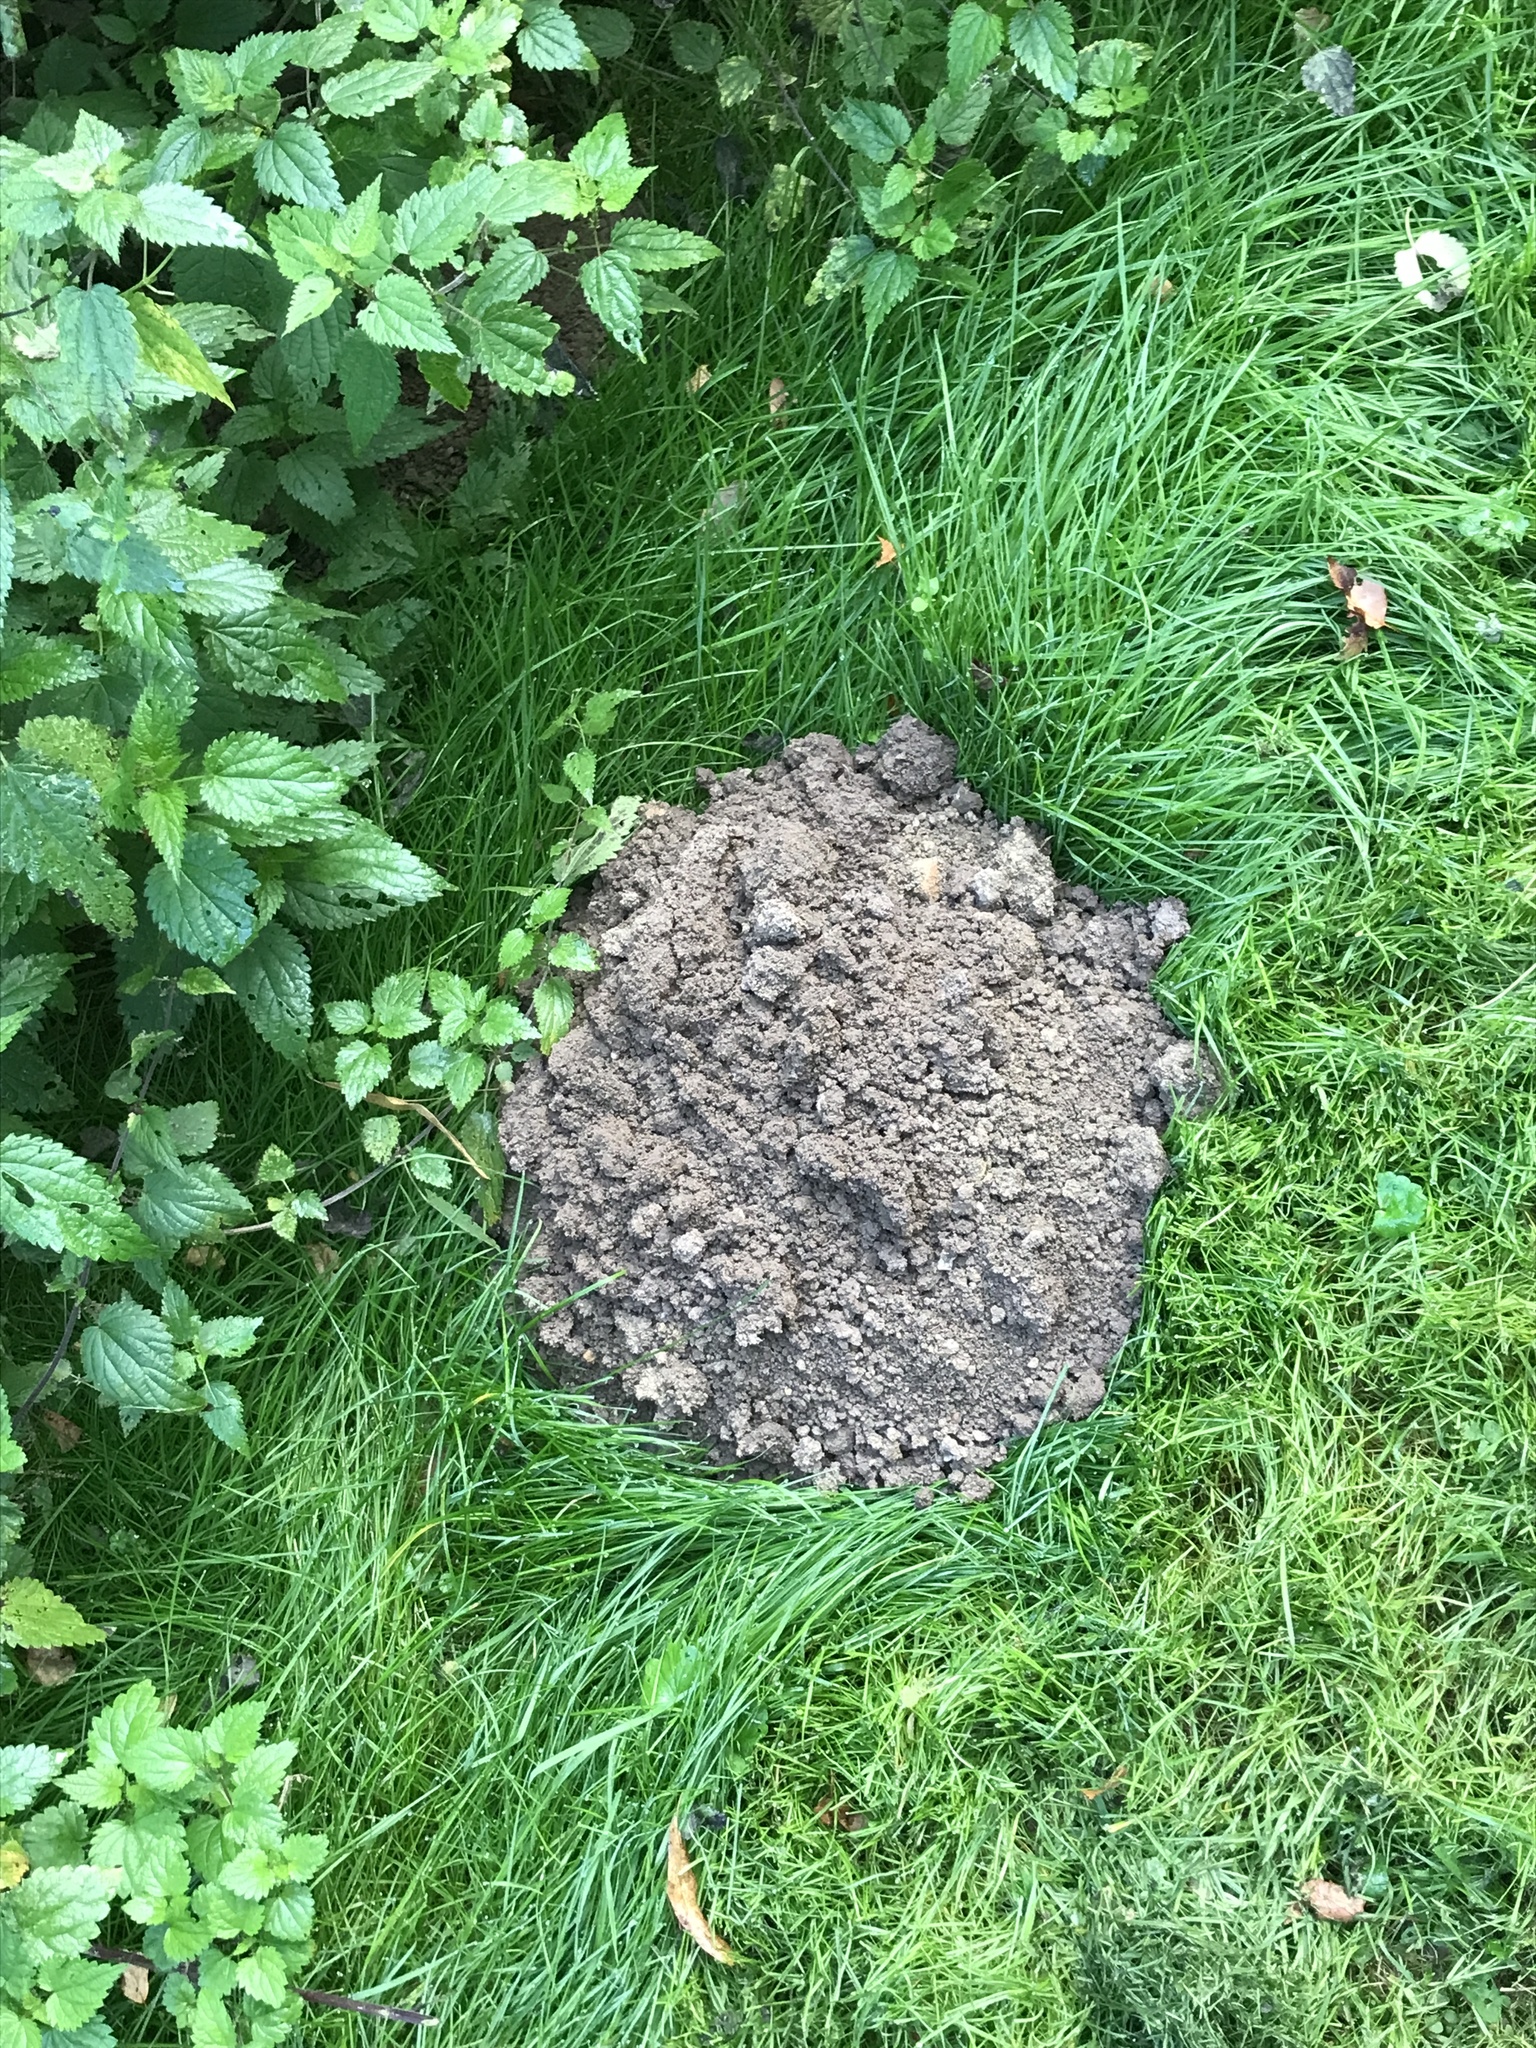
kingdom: Animalia
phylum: Chordata
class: Mammalia
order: Soricomorpha
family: Talpidae
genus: Talpa
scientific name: Talpa europaea
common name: European mole
